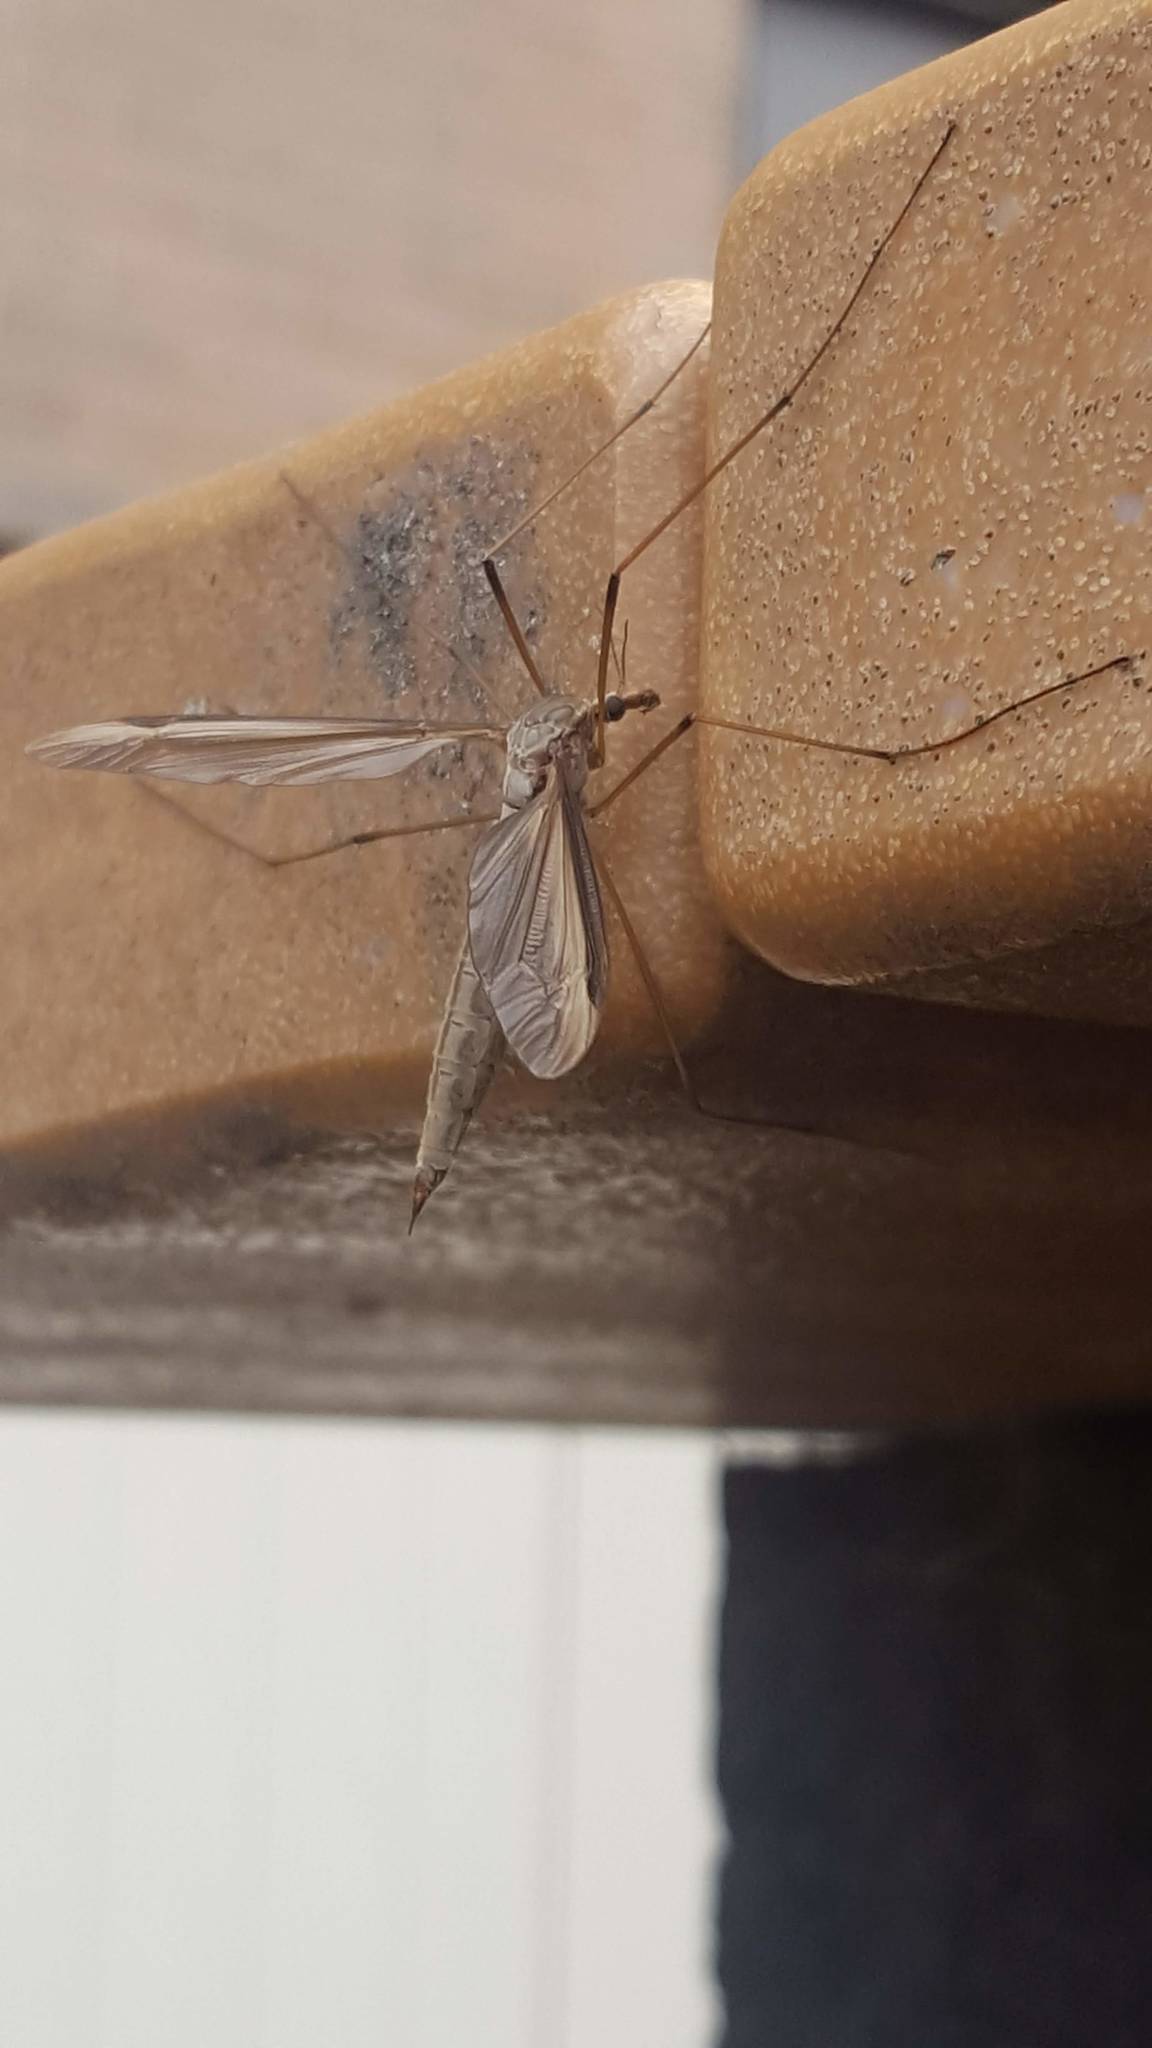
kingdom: Animalia
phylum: Arthropoda
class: Insecta
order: Diptera
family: Tipulidae
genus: Tipula
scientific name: Tipula
